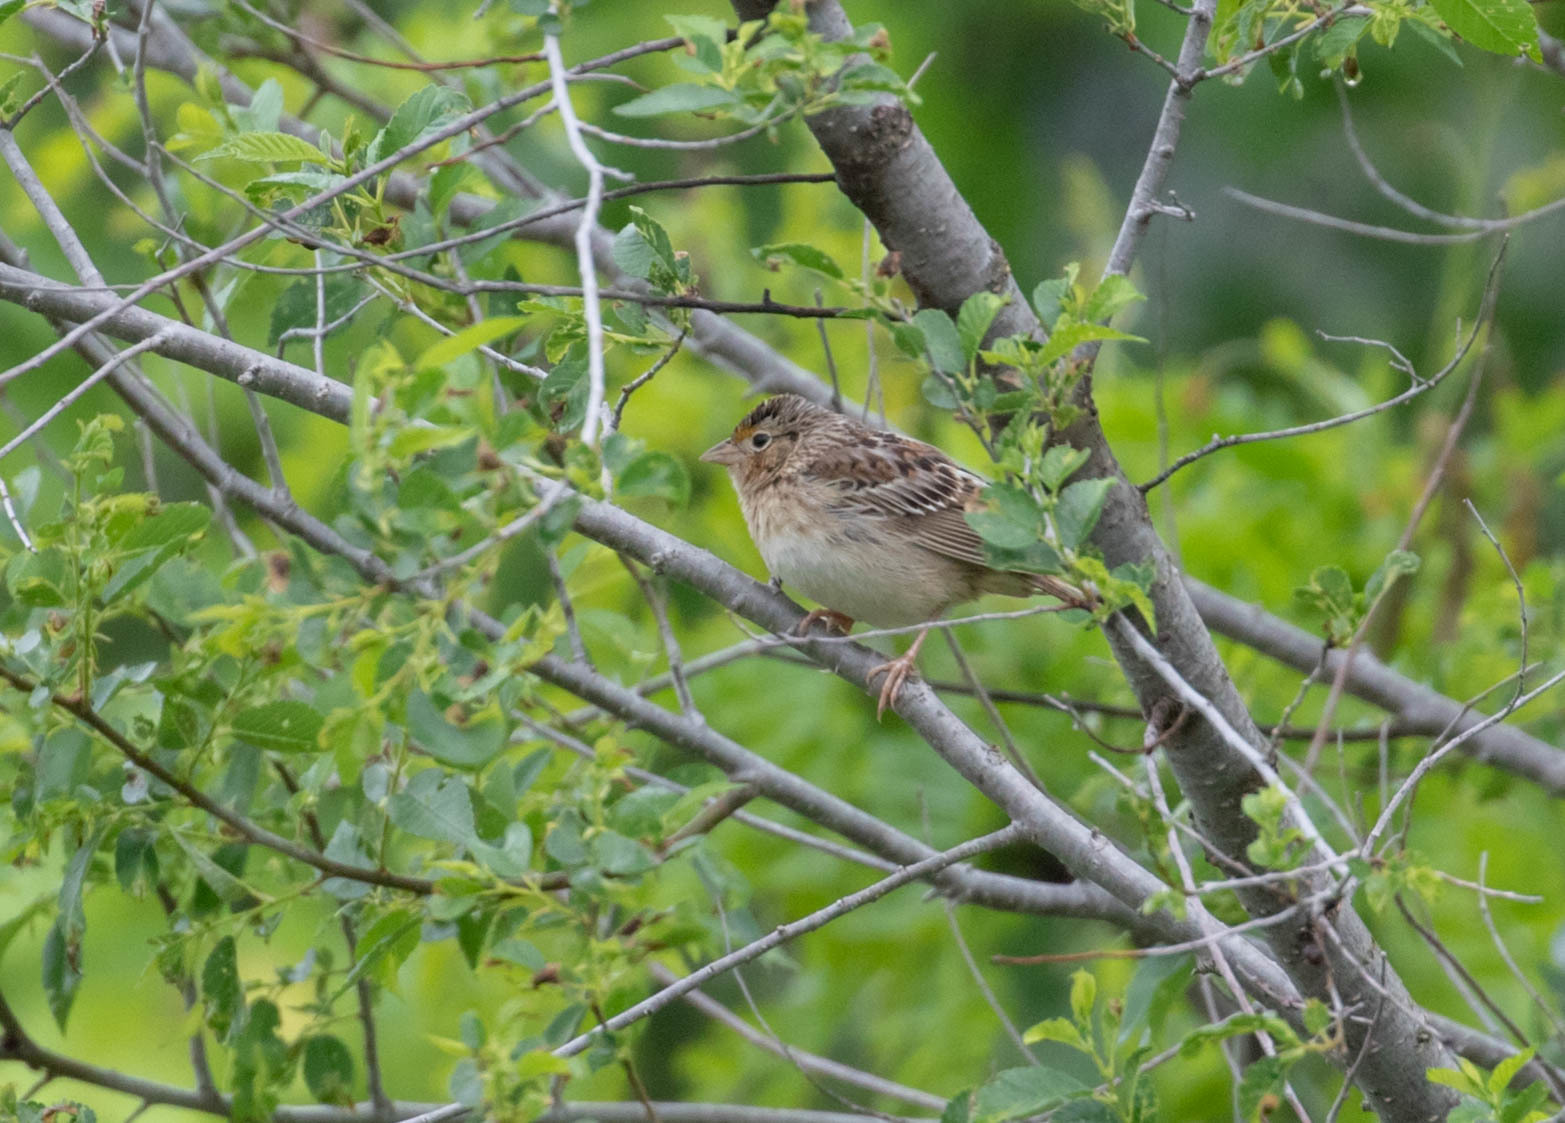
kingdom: Animalia
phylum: Chordata
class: Aves
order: Passeriformes
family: Passerellidae
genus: Ammodramus
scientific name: Ammodramus savannarum
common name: Grasshopper sparrow
